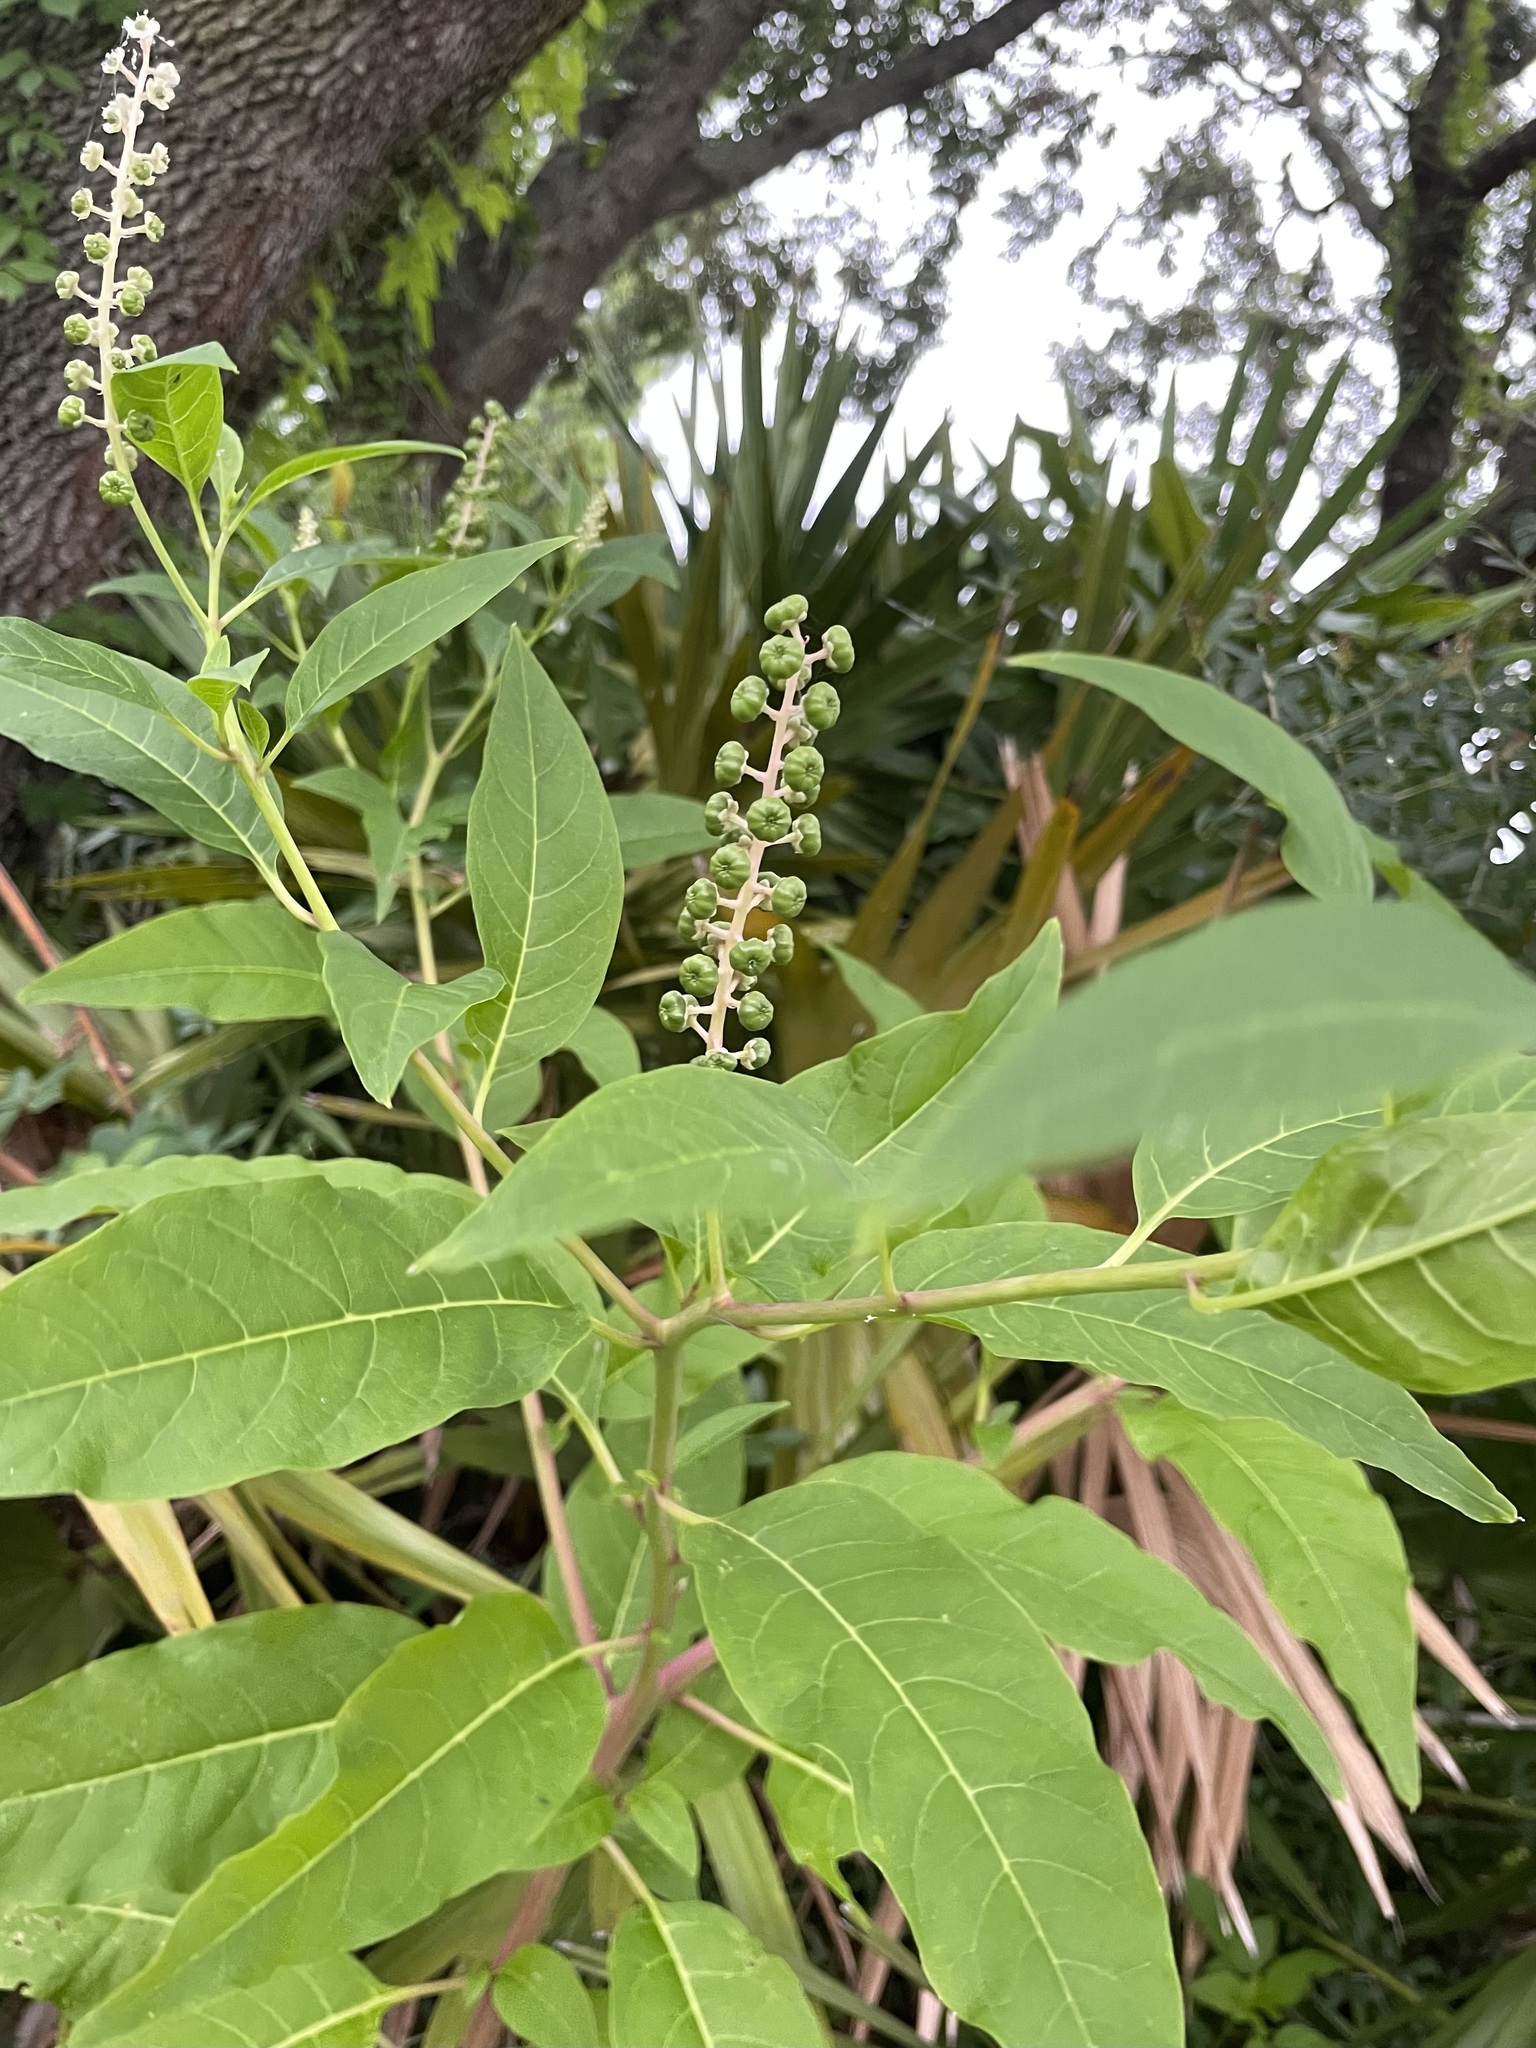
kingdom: Plantae
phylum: Tracheophyta
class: Magnoliopsida
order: Caryophyllales
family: Phytolaccaceae
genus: Phytolacca
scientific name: Phytolacca americana
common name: American pokeweed
